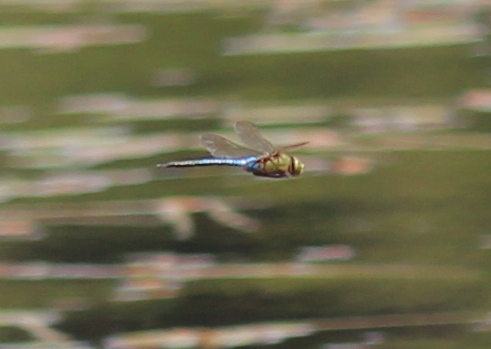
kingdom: Animalia
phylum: Arthropoda
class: Insecta
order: Odonata
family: Aeshnidae
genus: Anax
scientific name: Anax junius
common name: Common green darner
